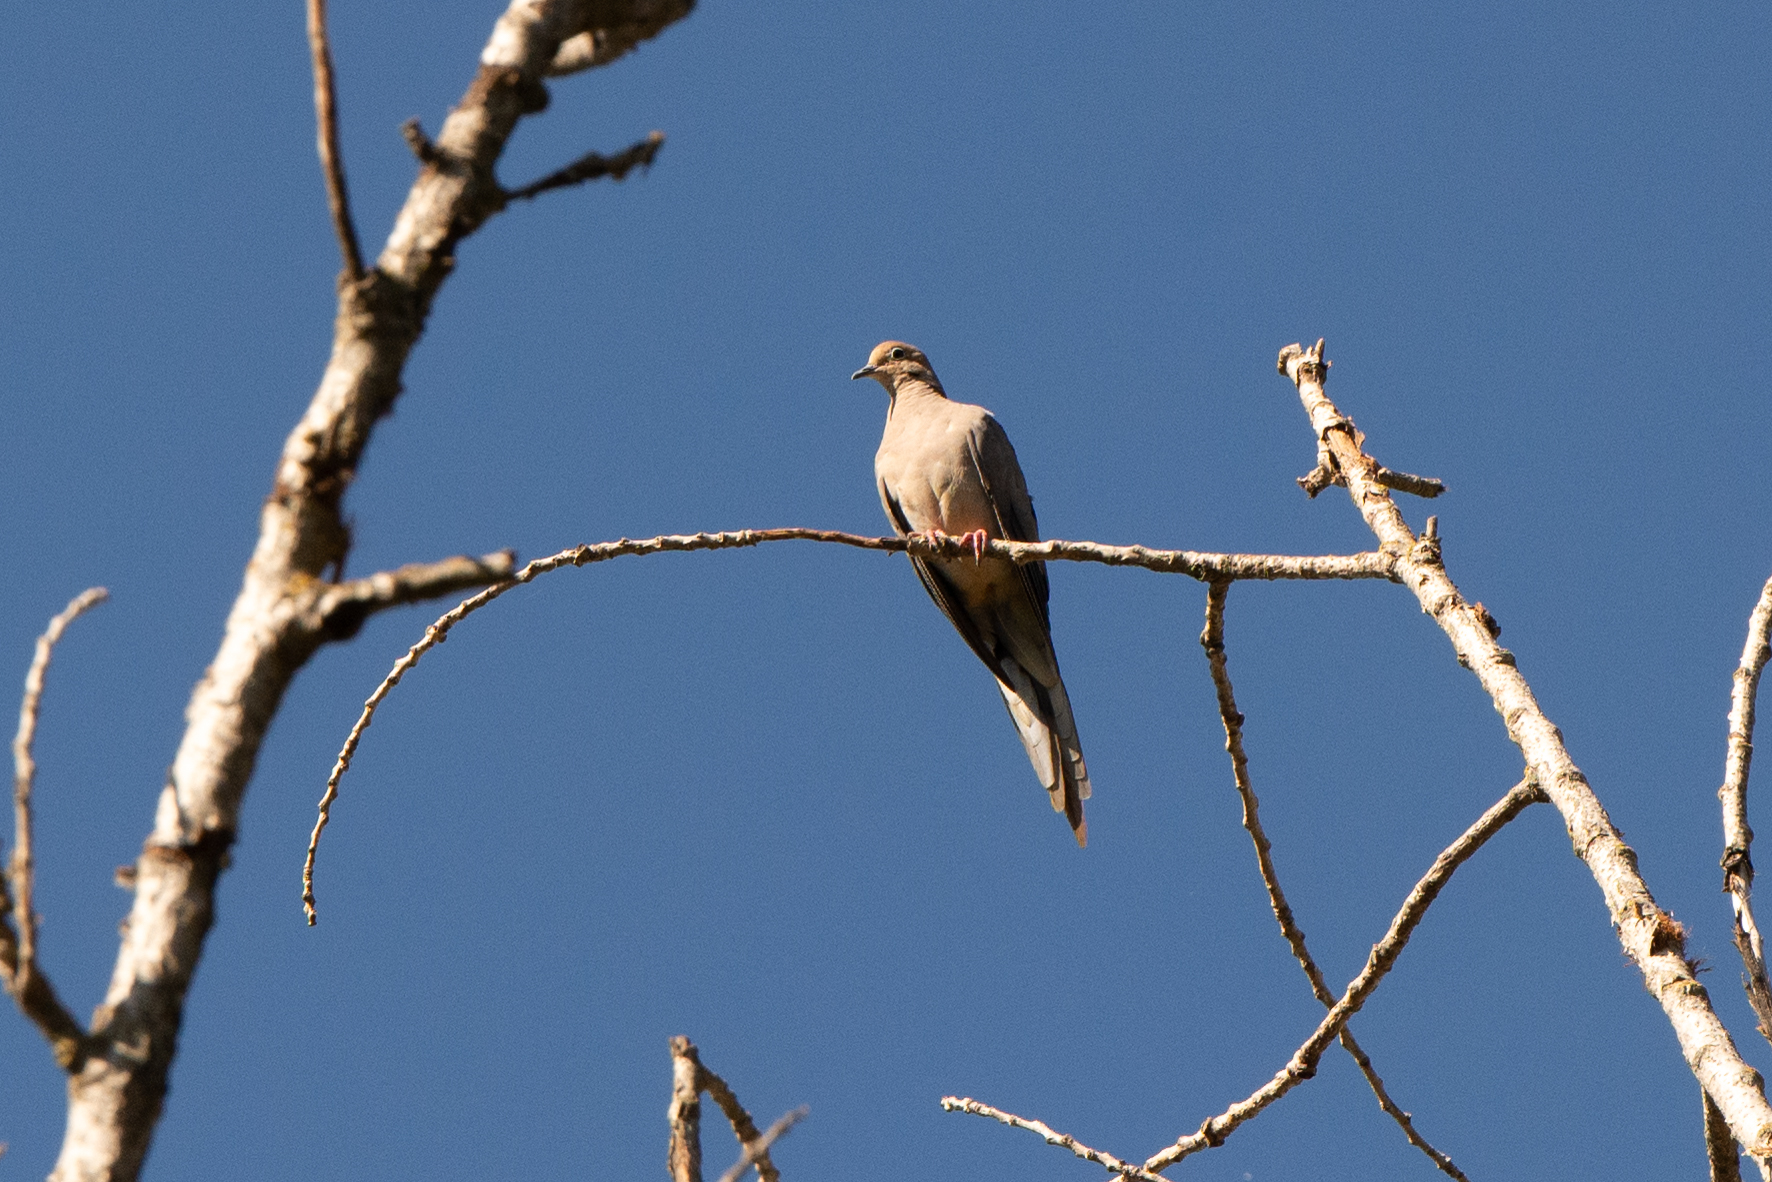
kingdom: Animalia
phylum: Chordata
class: Aves
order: Columbiformes
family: Columbidae
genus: Zenaida
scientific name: Zenaida macroura
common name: Mourning dove
